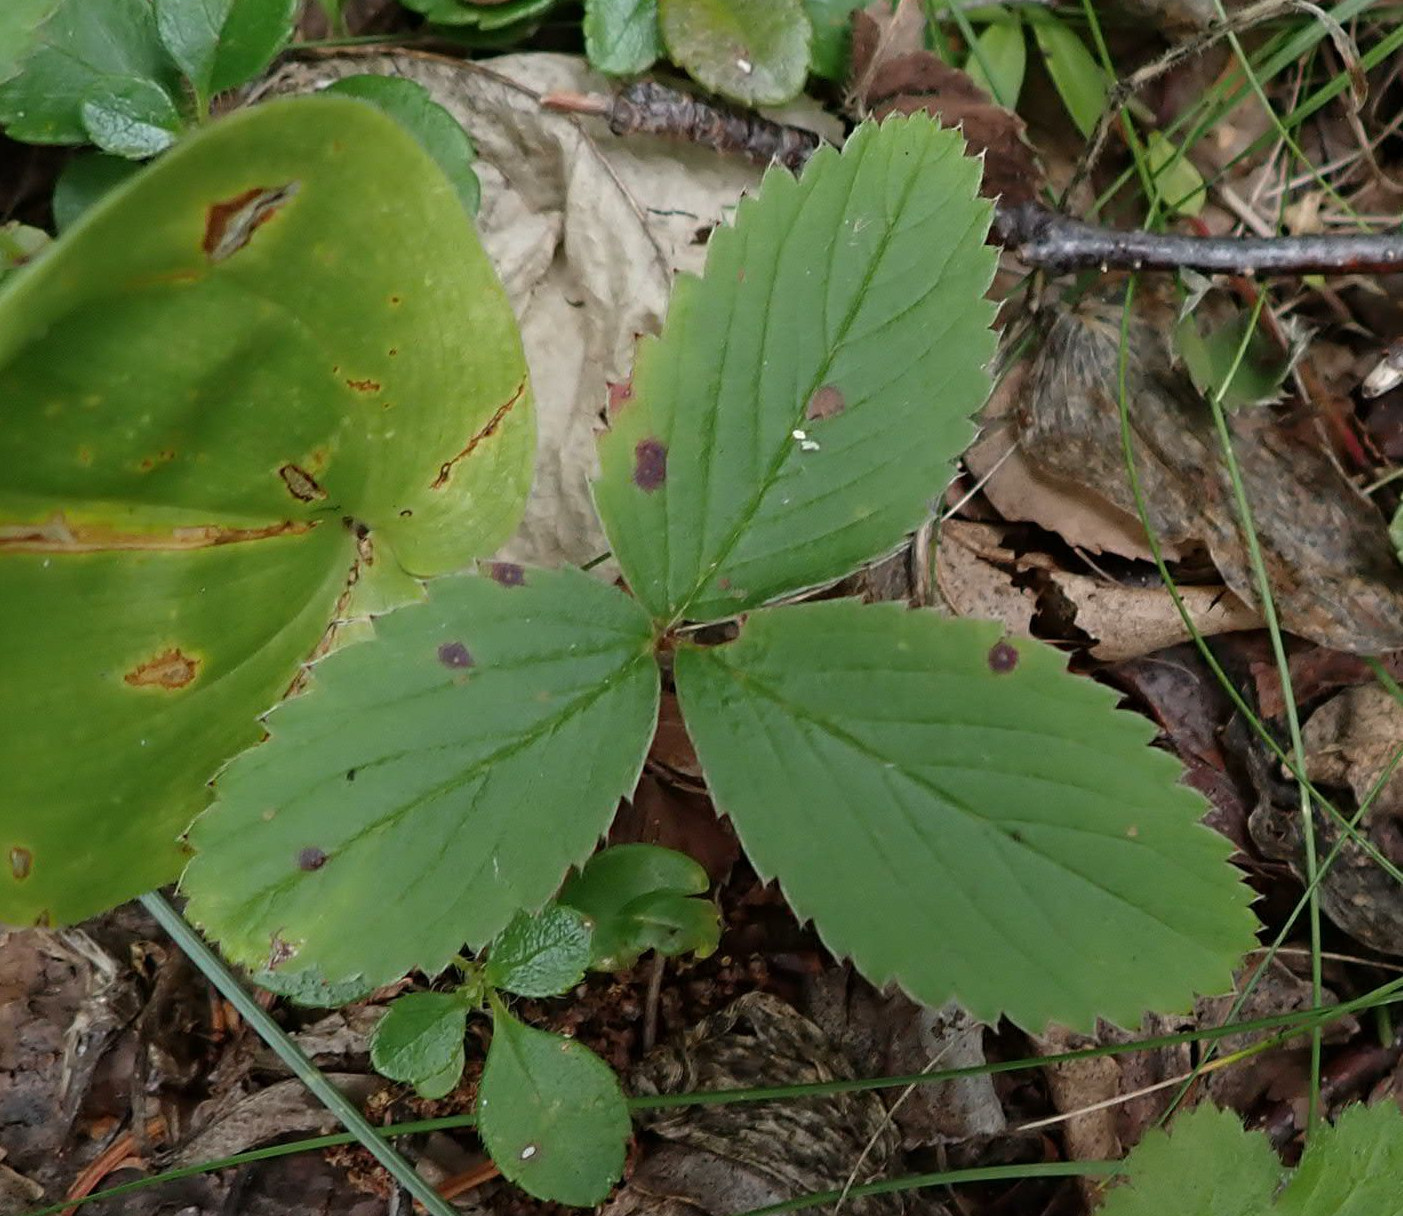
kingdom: Plantae
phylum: Tracheophyta
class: Magnoliopsida
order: Rosales
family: Rosaceae
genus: Fragaria
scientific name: Fragaria virginiana
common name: Thickleaved wild strawberry
